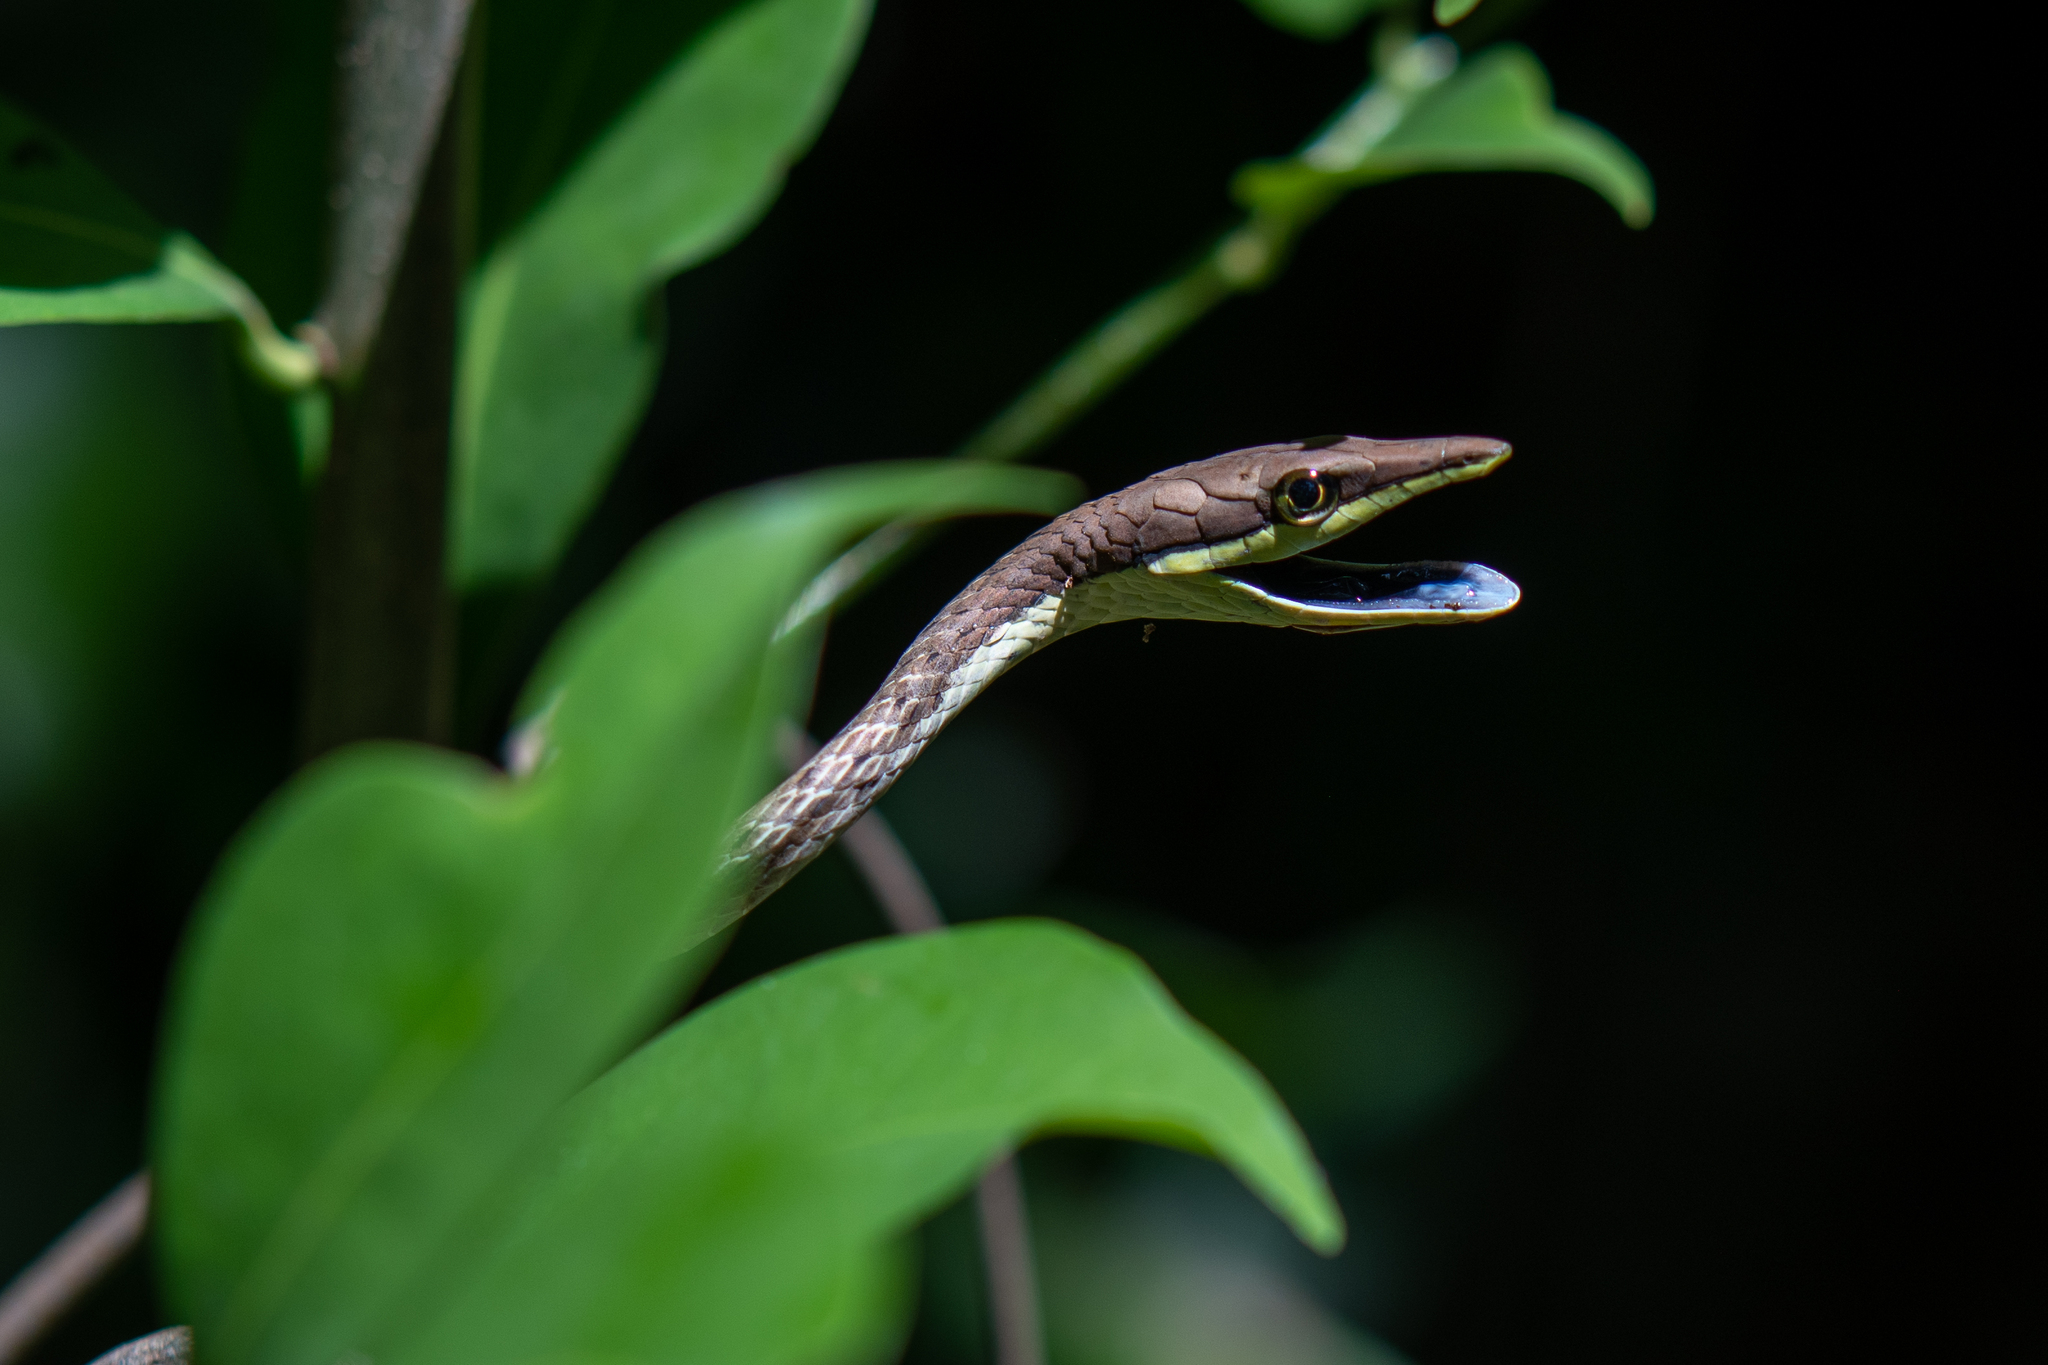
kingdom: Animalia
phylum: Chordata
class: Squamata
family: Colubridae
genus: Oxybelis
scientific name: Oxybelis koehleri
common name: Köhler’s vine snake
